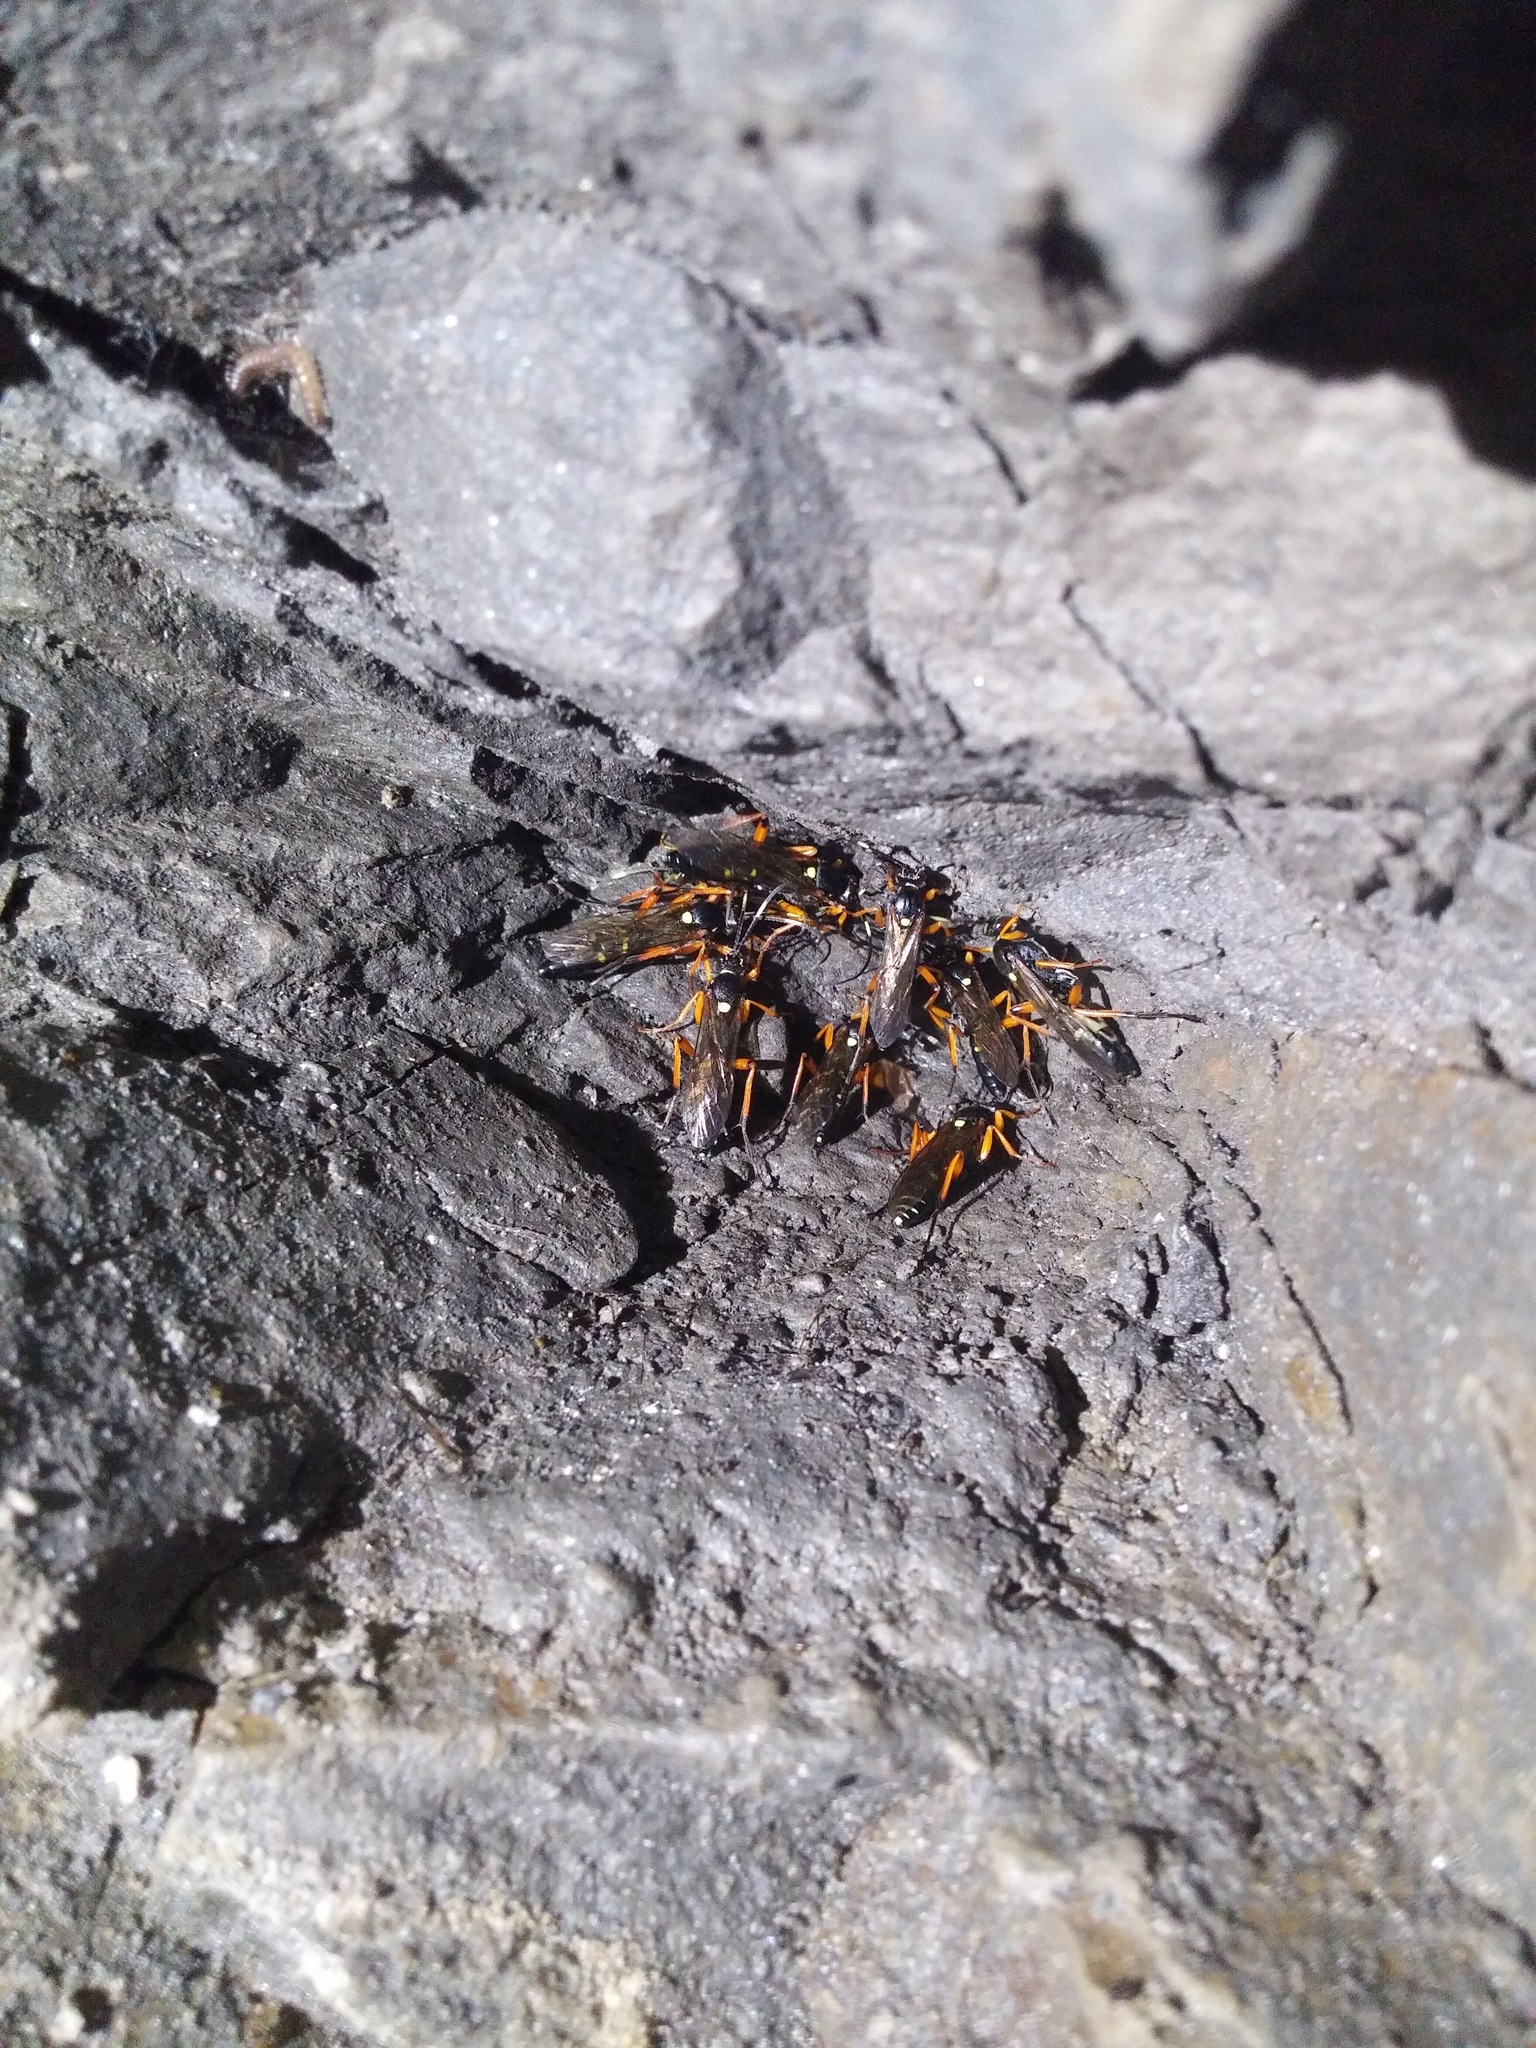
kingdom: Animalia
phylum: Arthropoda
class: Insecta
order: Hymenoptera
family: Ichneumonidae
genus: Diphyus
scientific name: Diphyus quadripunctorius
